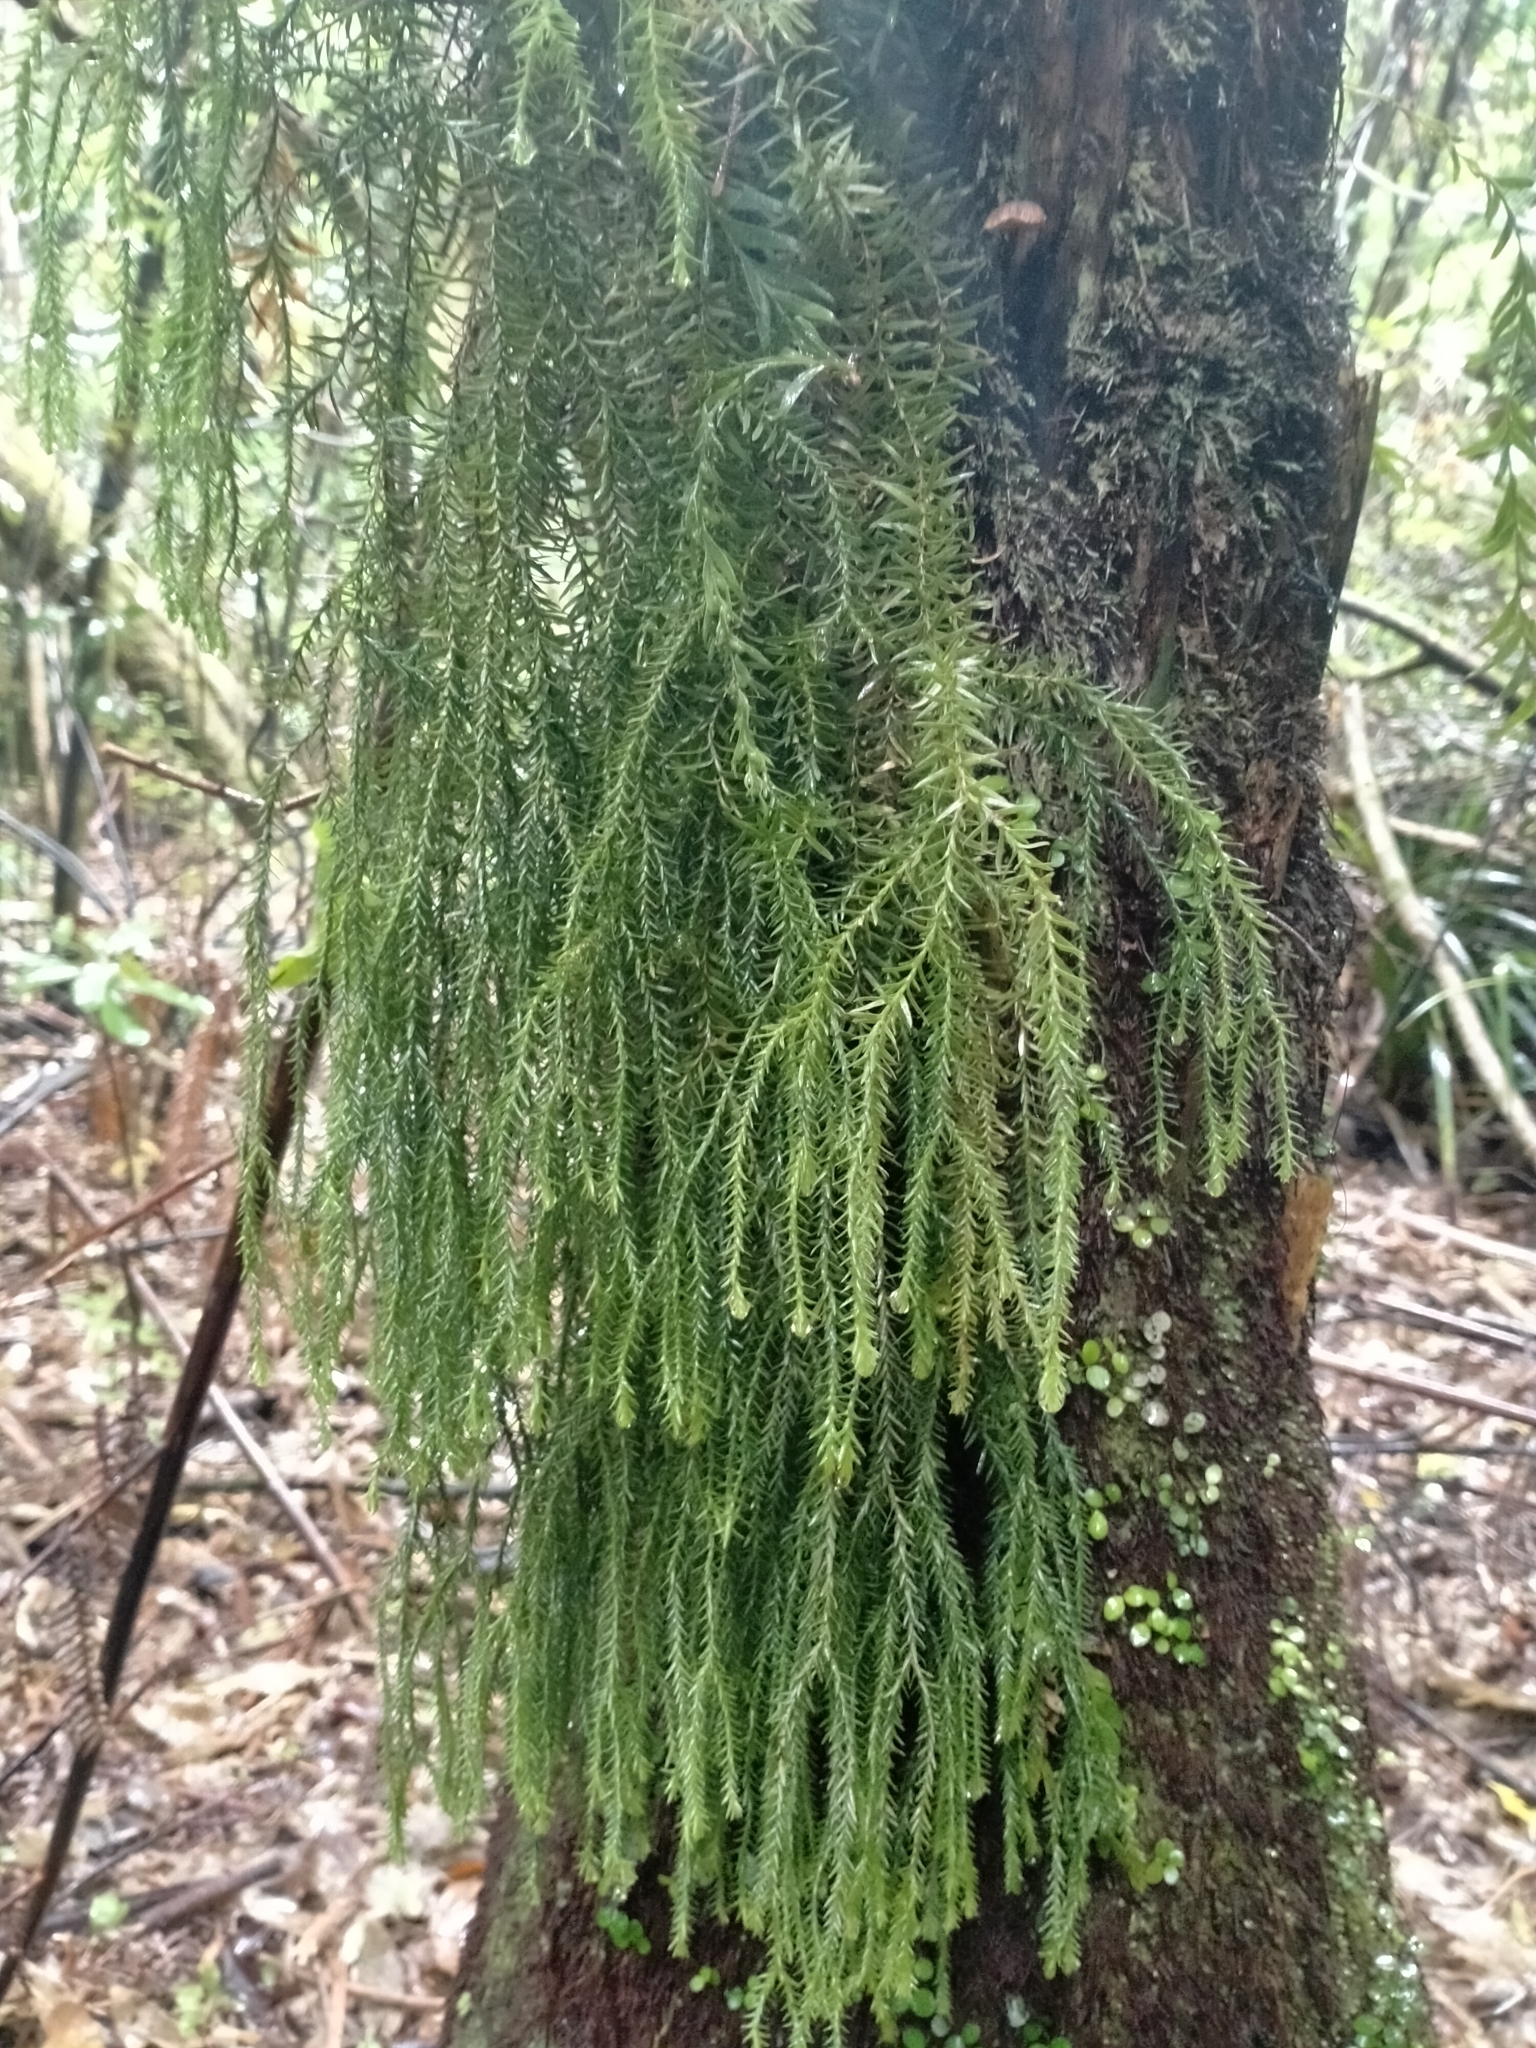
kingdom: Plantae
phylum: Tracheophyta
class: Lycopodiopsida
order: Lycopodiales
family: Lycopodiaceae
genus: Phlegmariurus
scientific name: Phlegmariurus varius
